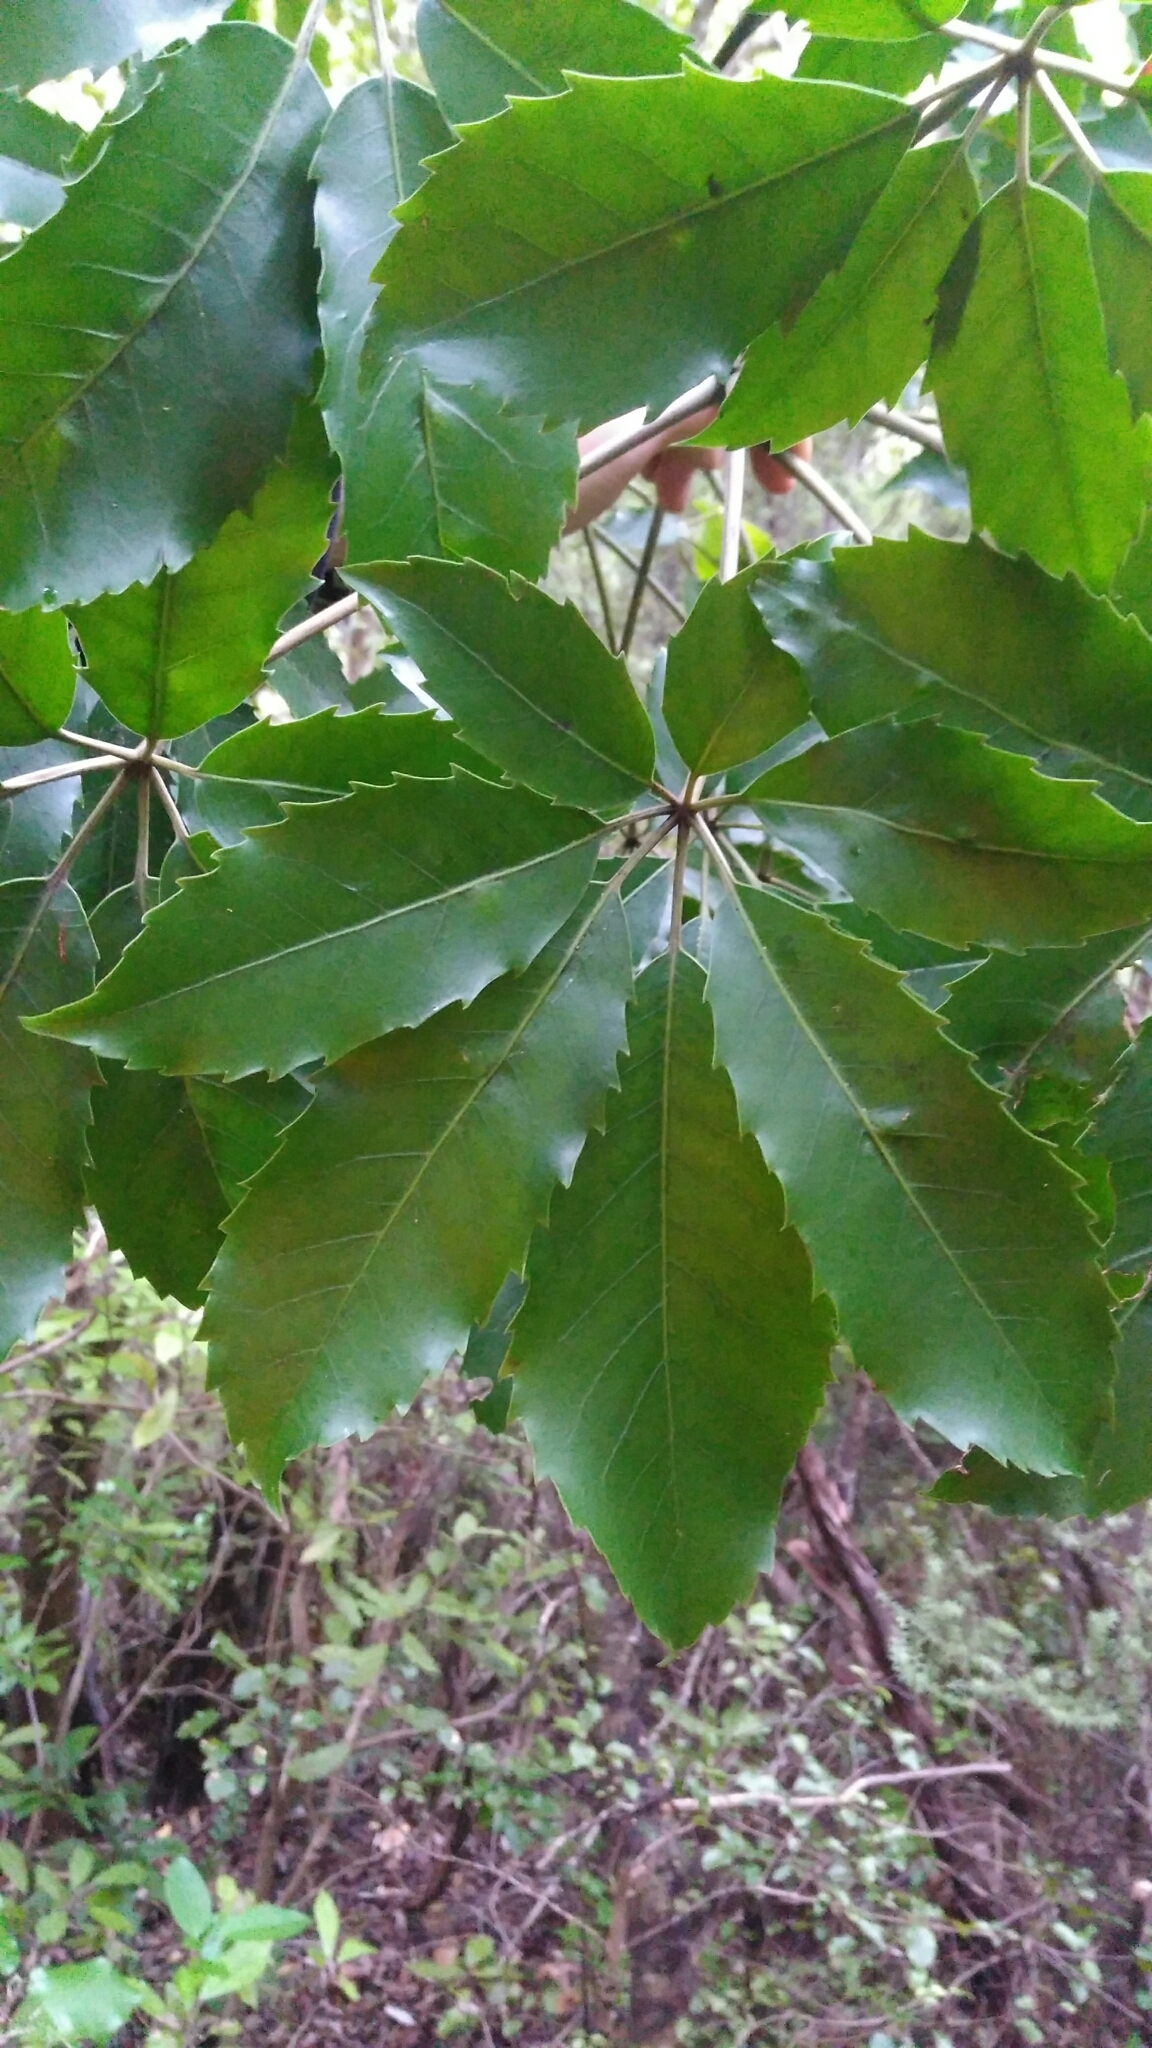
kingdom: Plantae
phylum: Tracheophyta
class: Magnoliopsida
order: Apiales
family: Araliaceae
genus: Neopanax
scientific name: Neopanax arboreus
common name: Five-fingers
